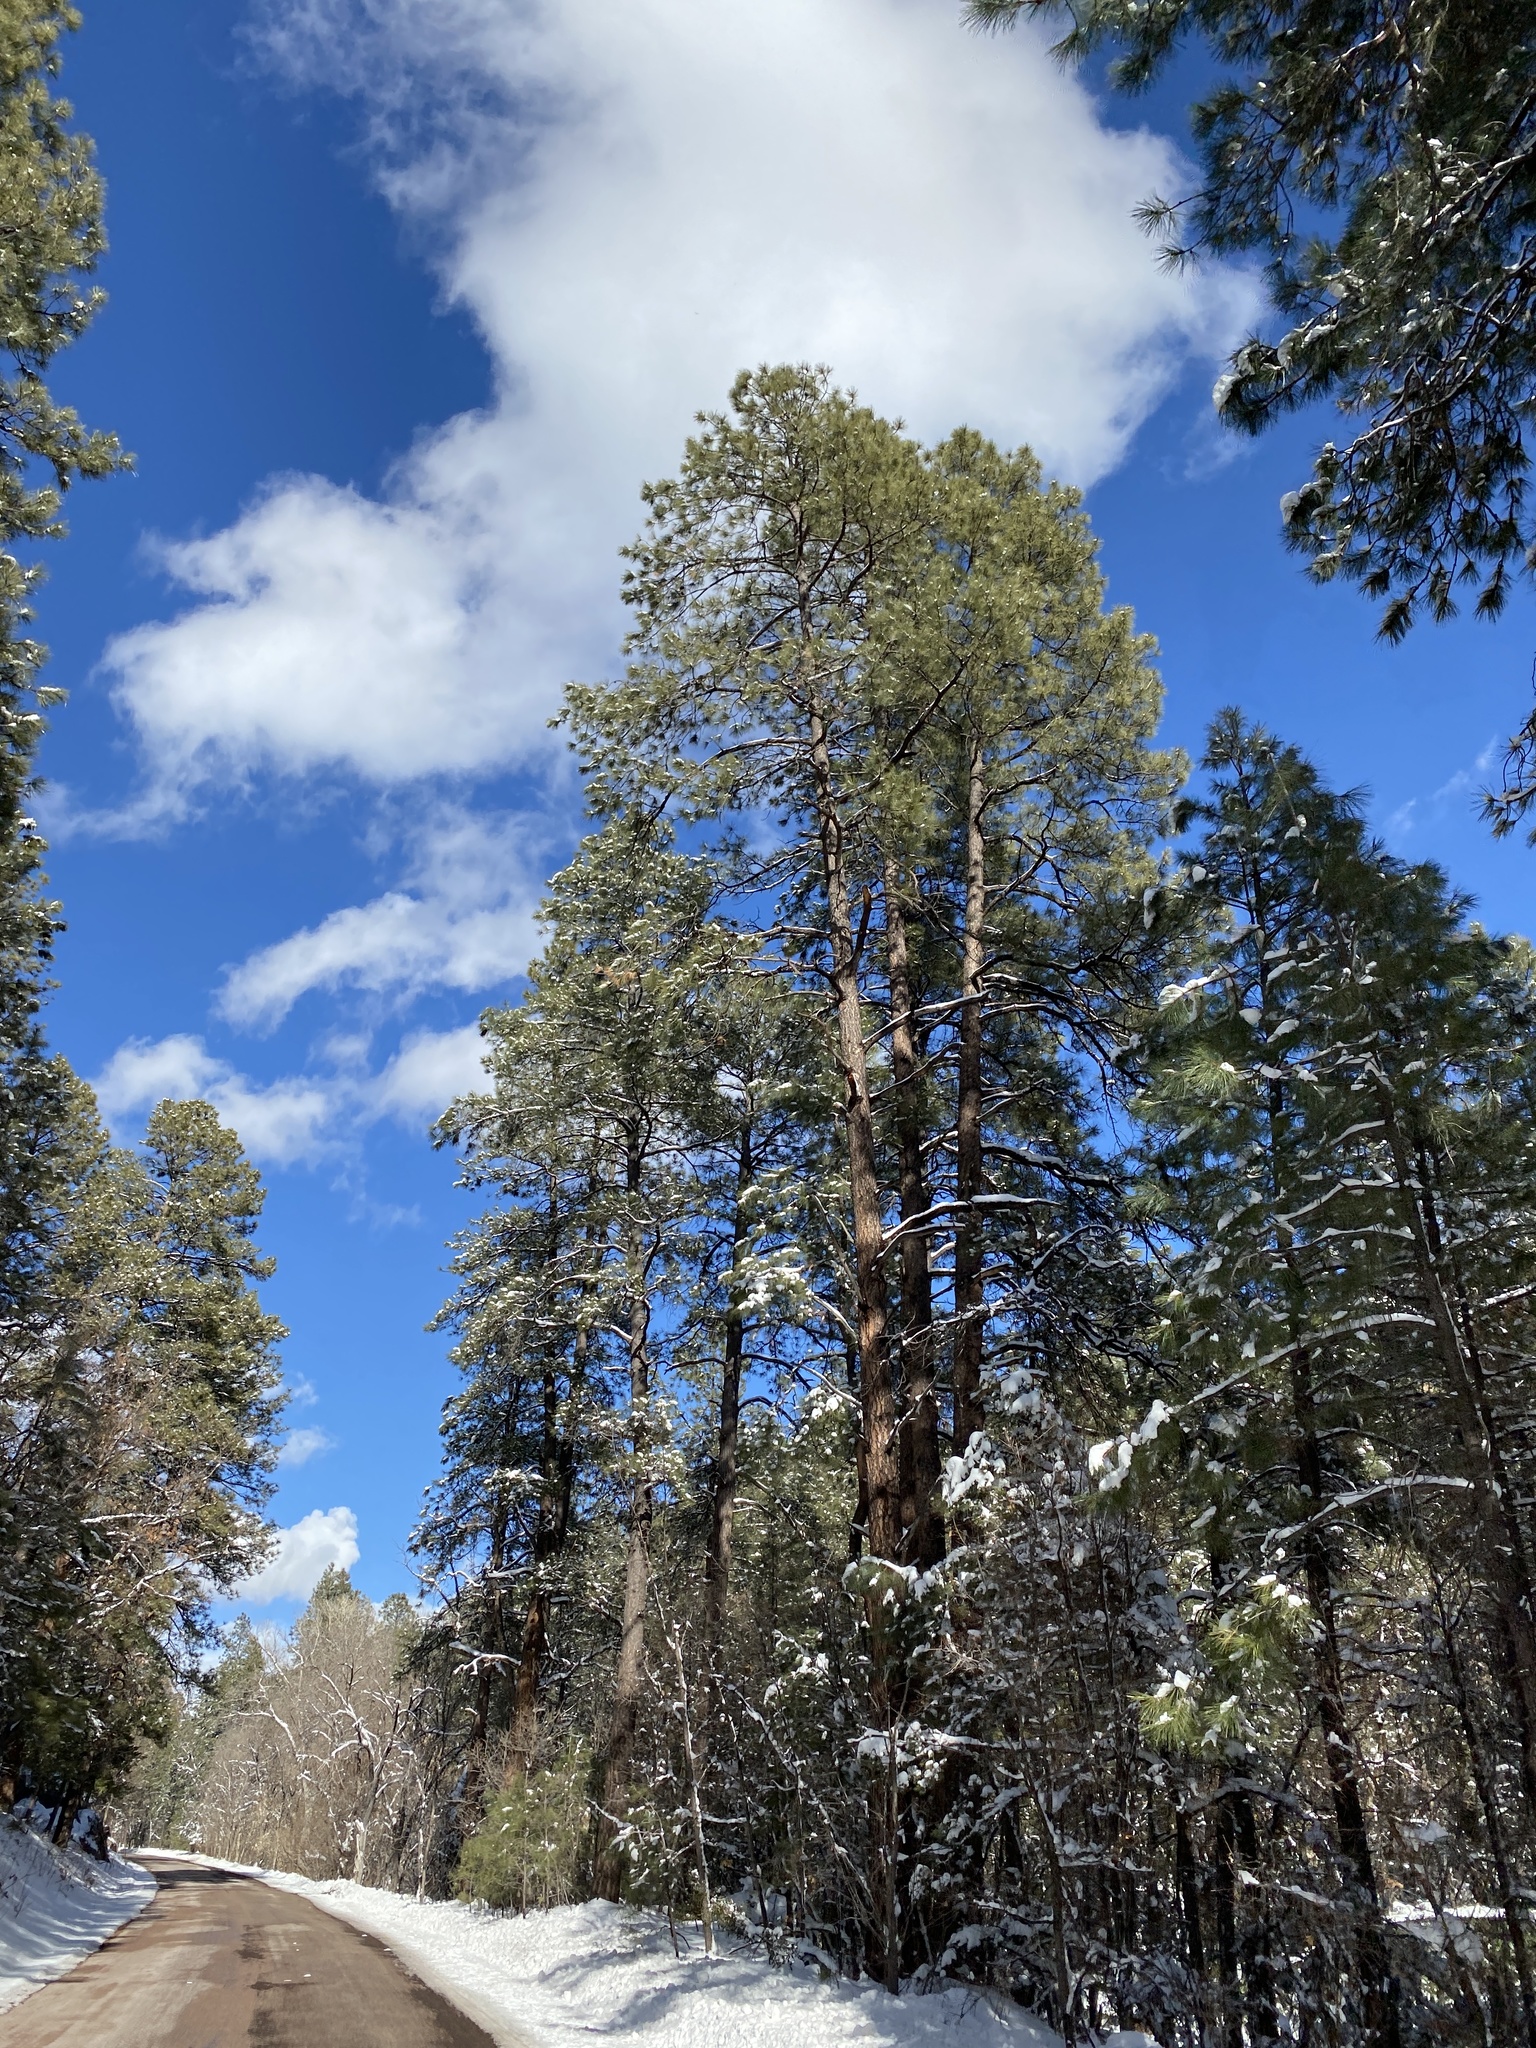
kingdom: Plantae
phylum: Tracheophyta
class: Pinopsida
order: Pinales
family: Pinaceae
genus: Pinus
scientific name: Pinus ponderosa
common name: Western yellow-pine
